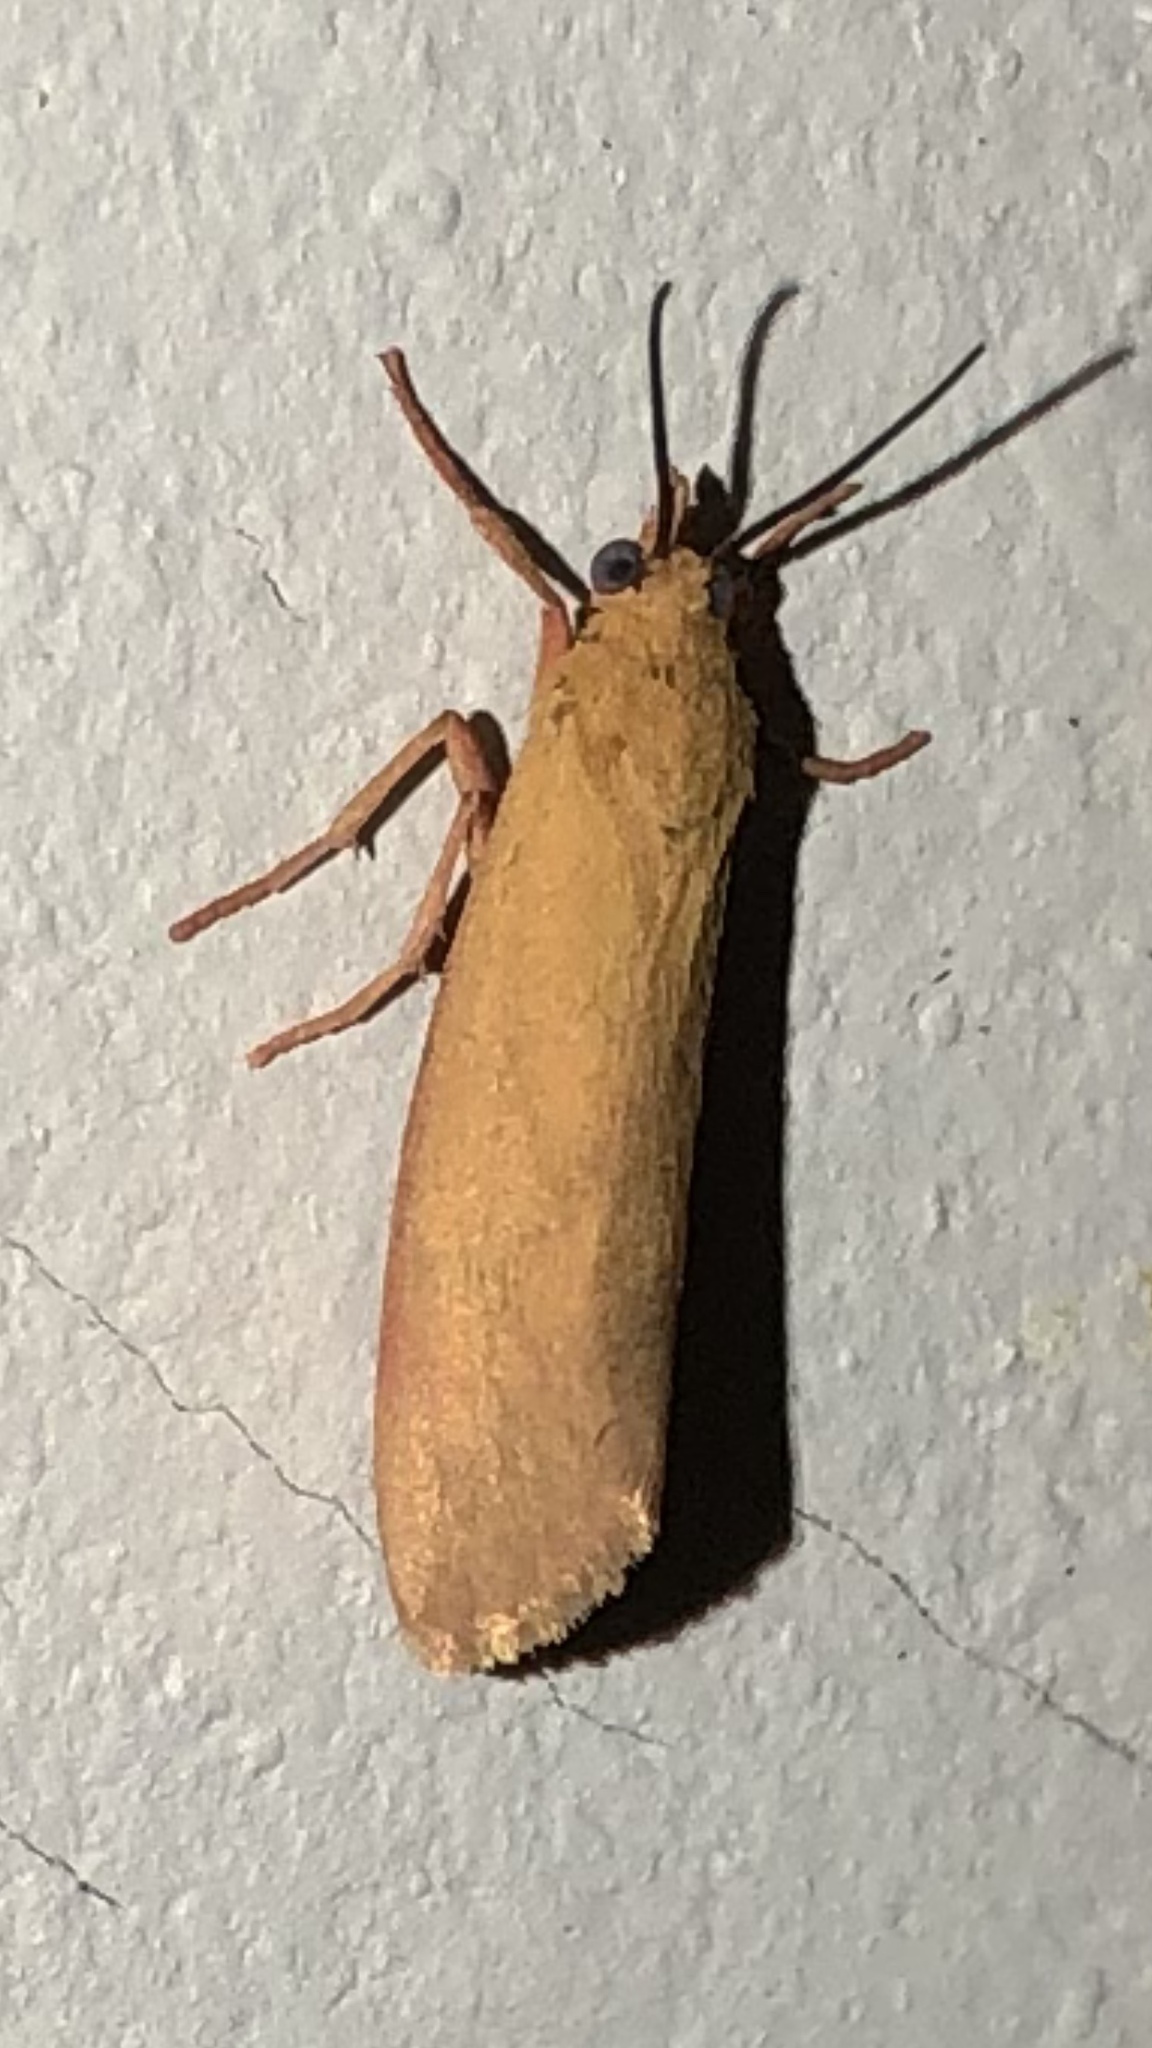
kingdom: Animalia
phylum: Arthropoda
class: Insecta
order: Lepidoptera
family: Erebidae
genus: Virbia
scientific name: Virbia aurantiaca
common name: Orange virbia moth
